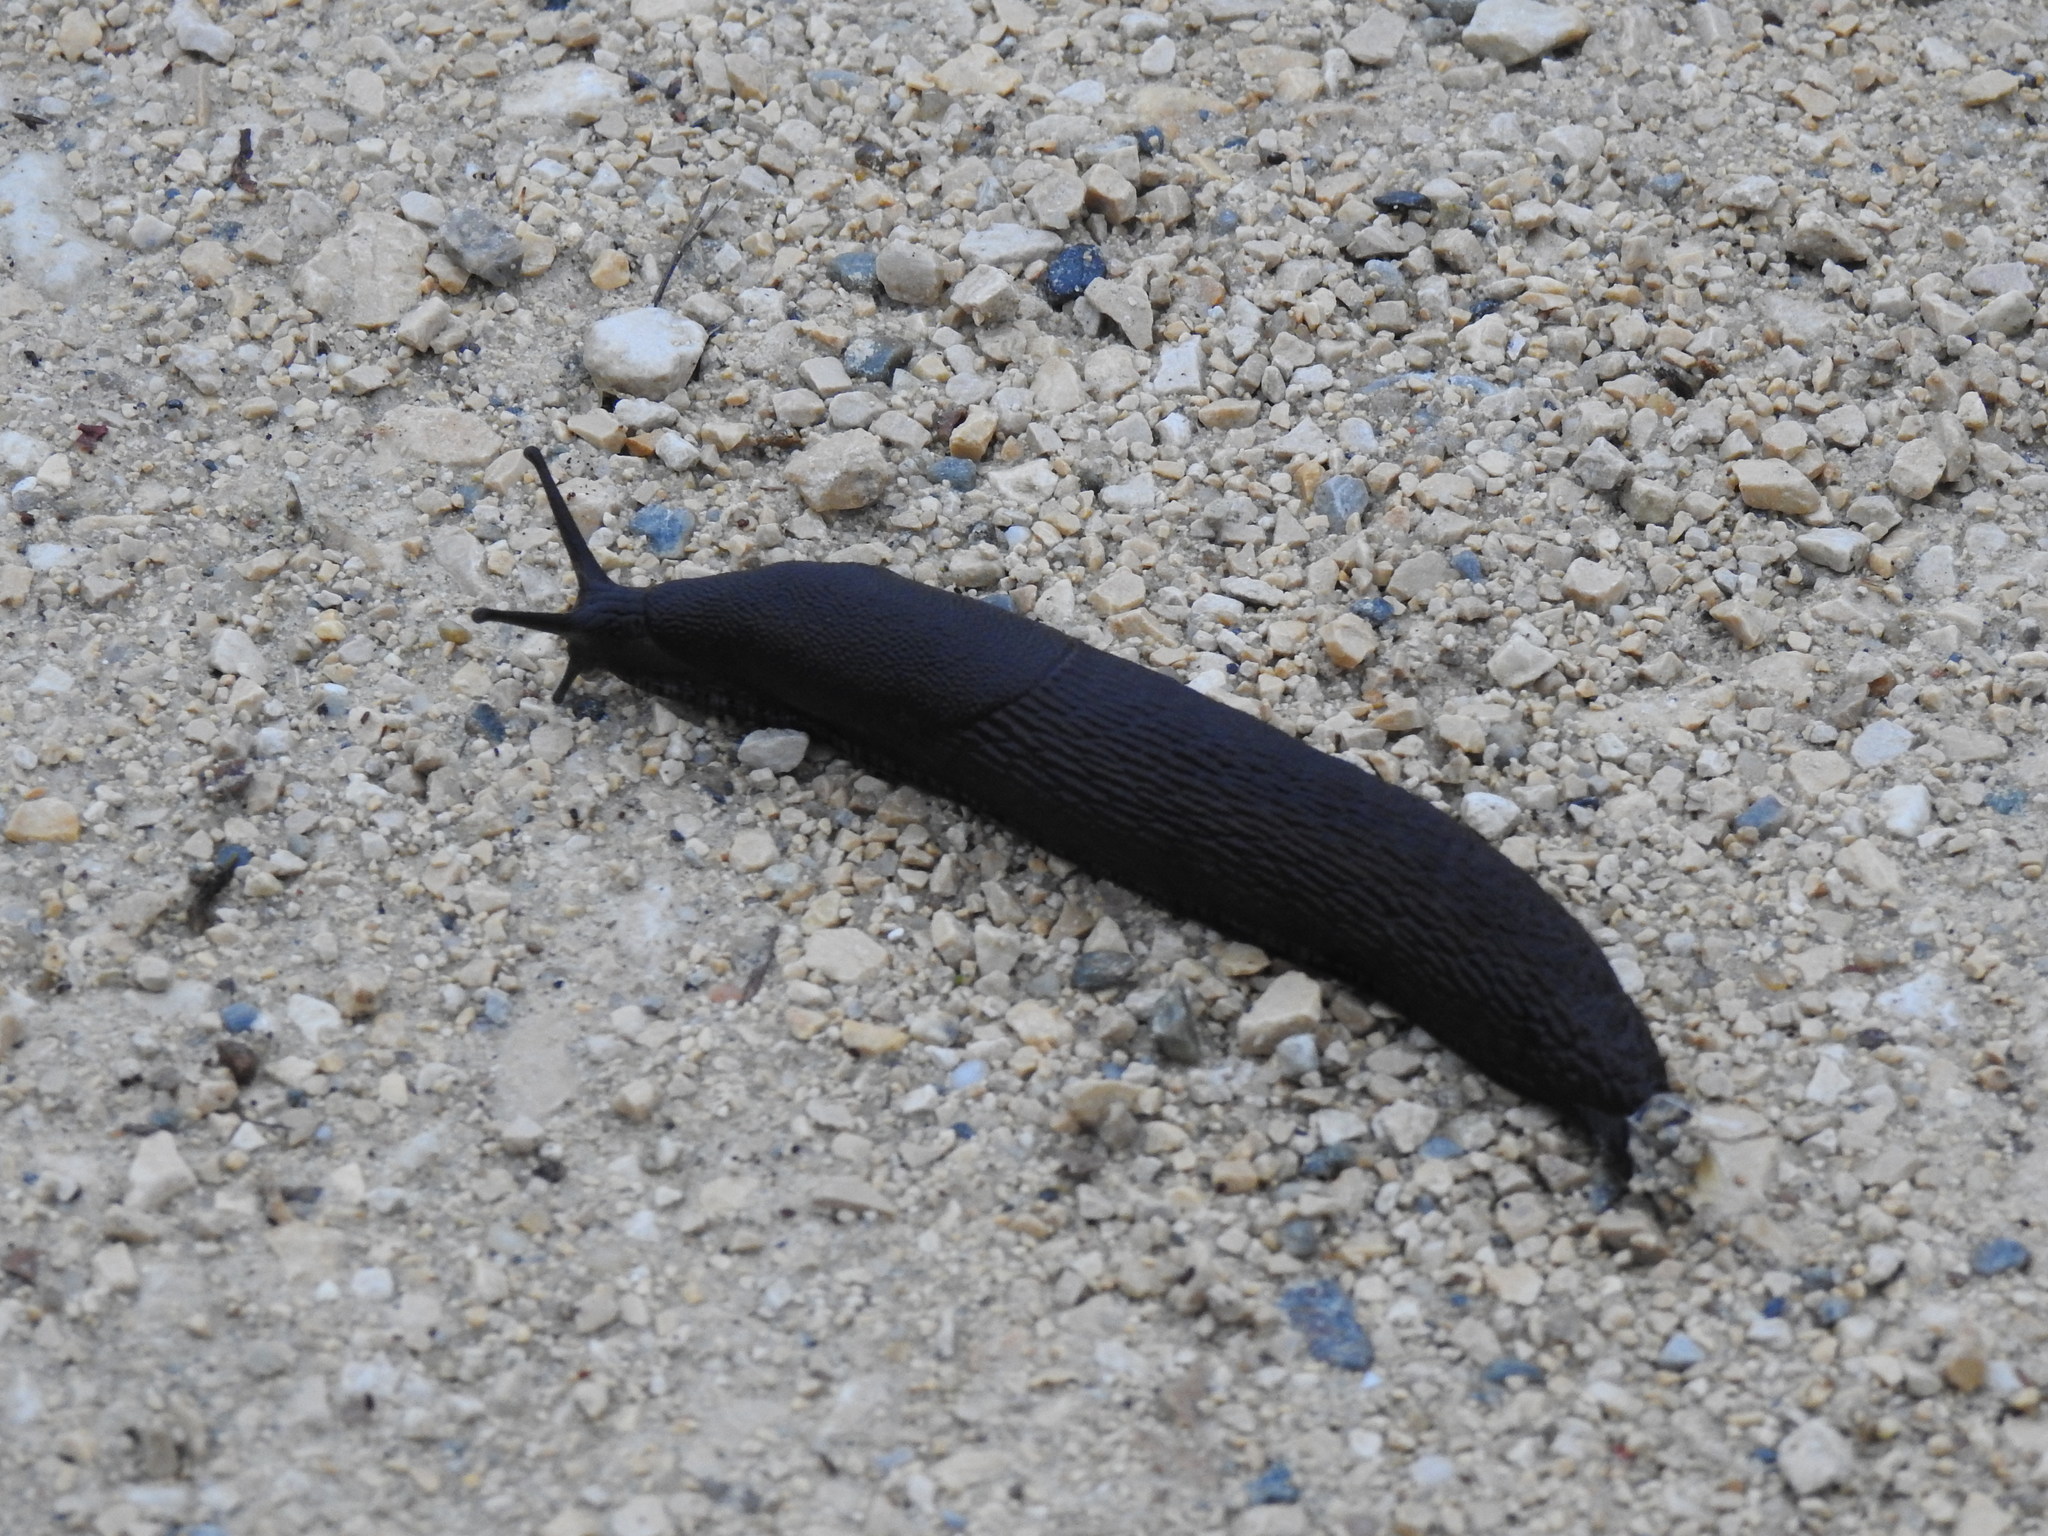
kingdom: Animalia
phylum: Mollusca
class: Gastropoda
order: Stylommatophora
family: Arionidae
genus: Arion
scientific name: Arion ater
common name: Black arion
